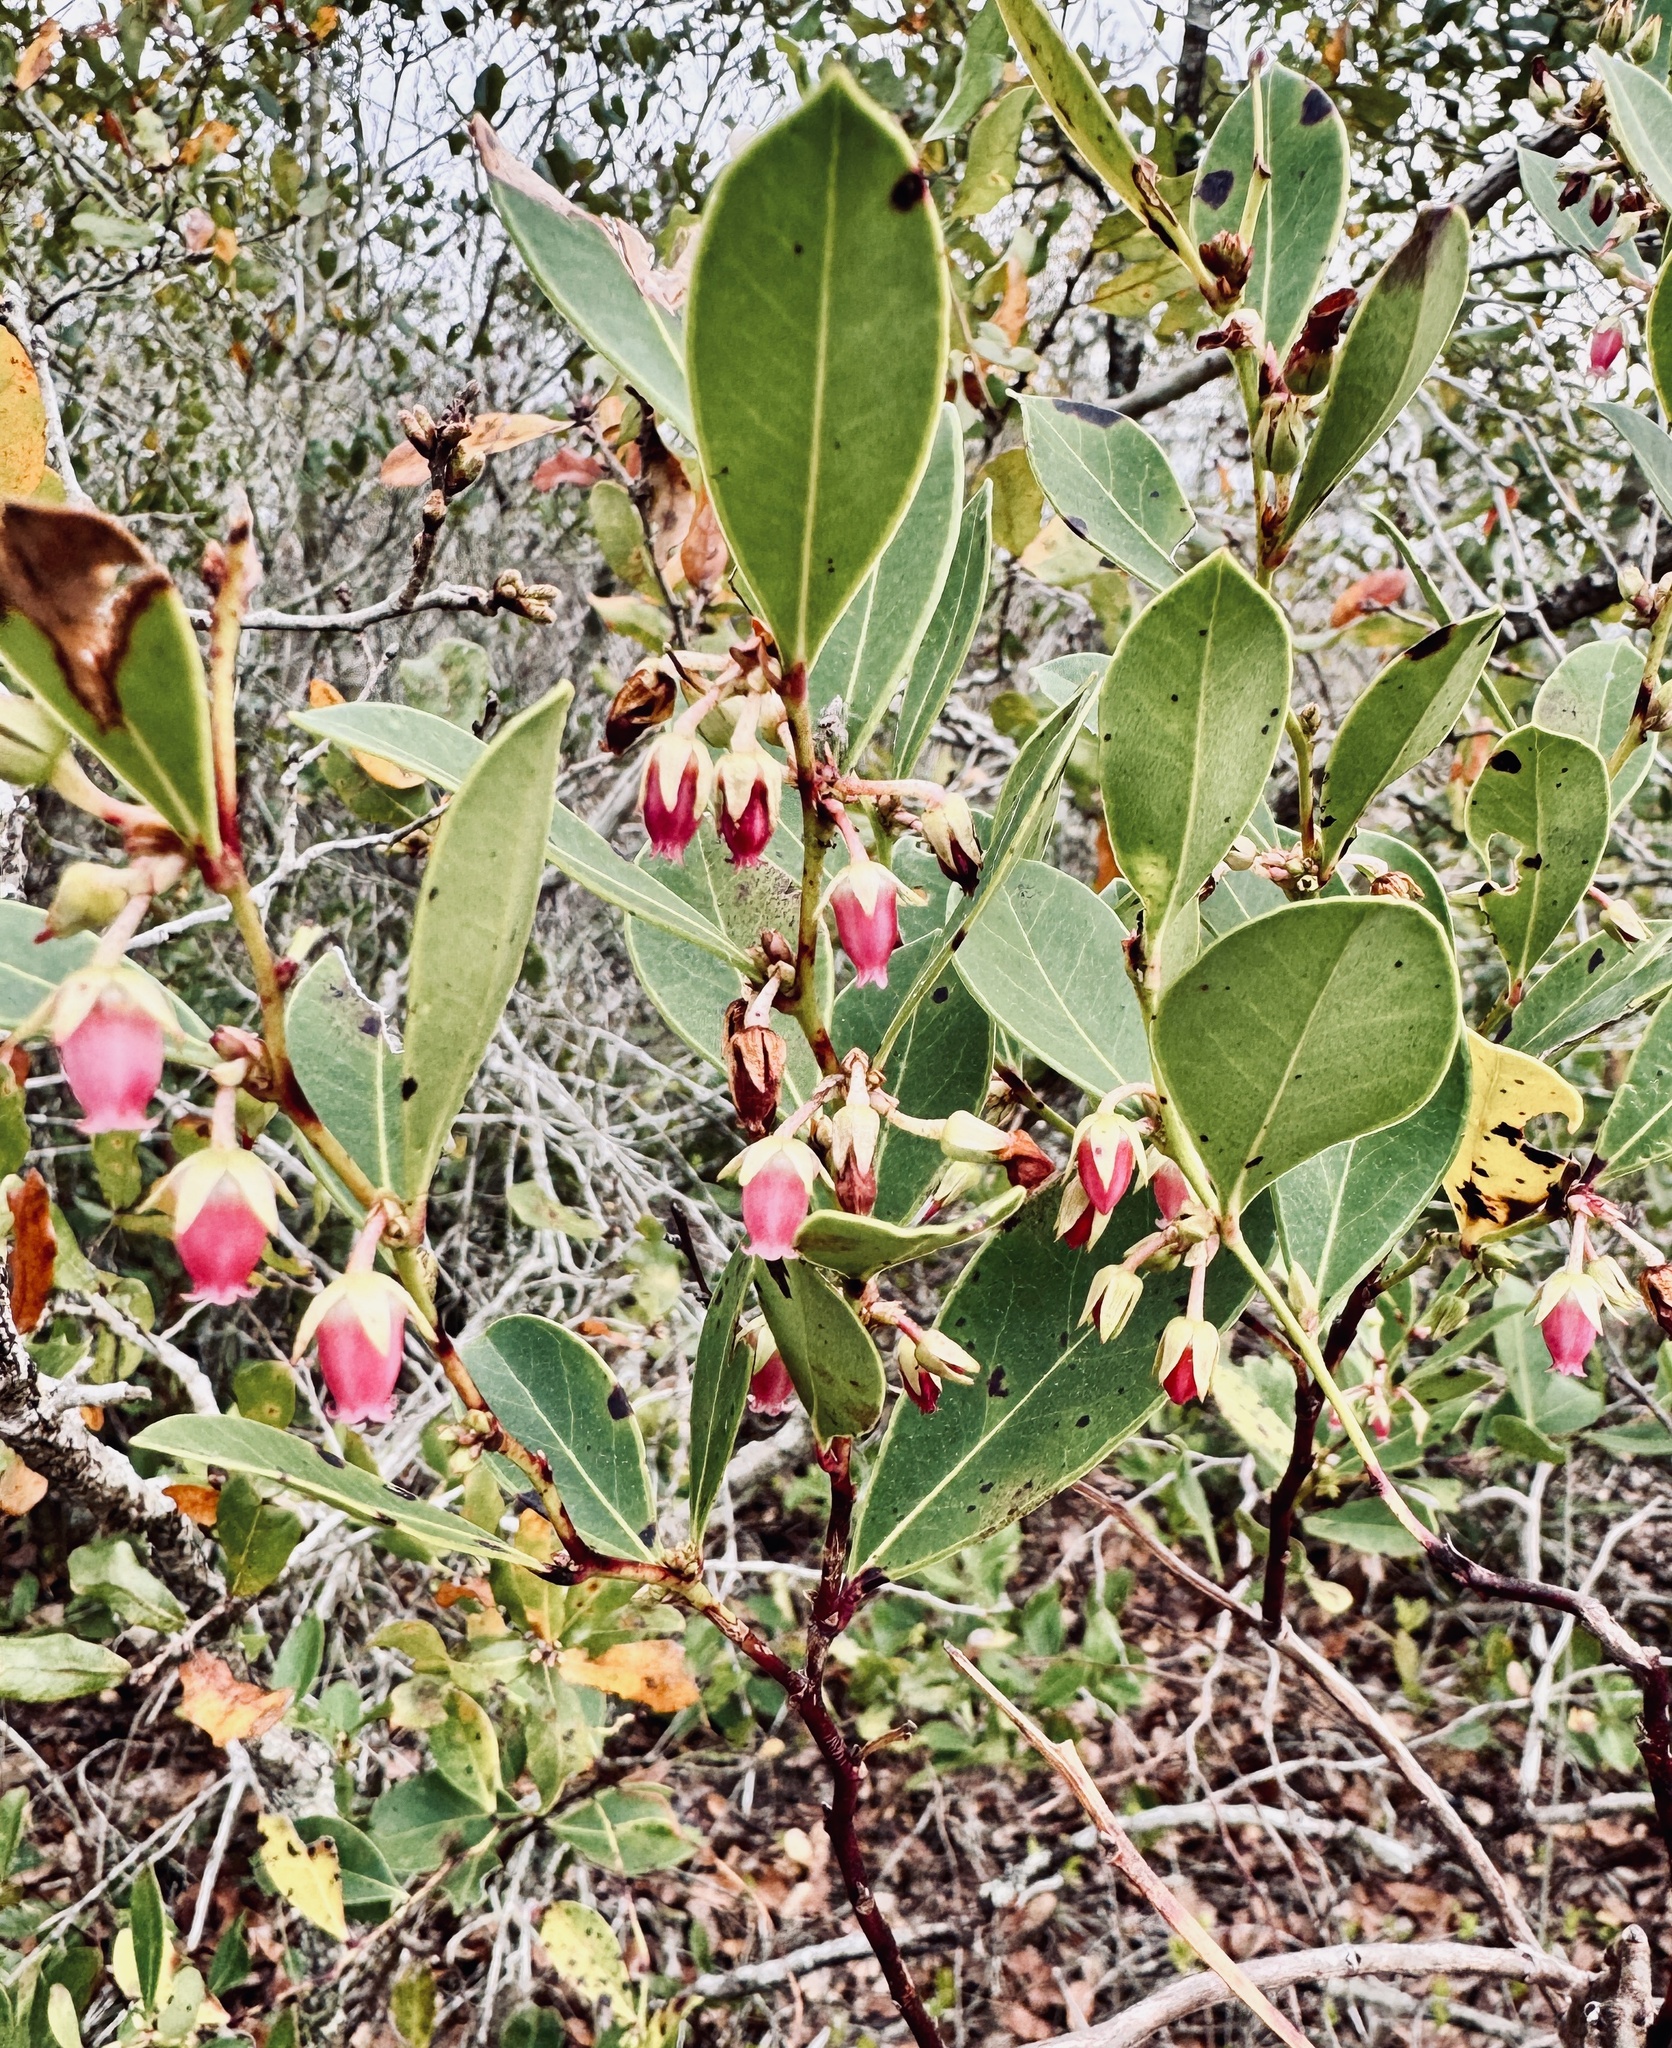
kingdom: Plantae
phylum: Tracheophyta
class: Magnoliopsida
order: Ericales
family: Ericaceae
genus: Lyonia
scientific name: Lyonia lucida
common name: Fetterbush
